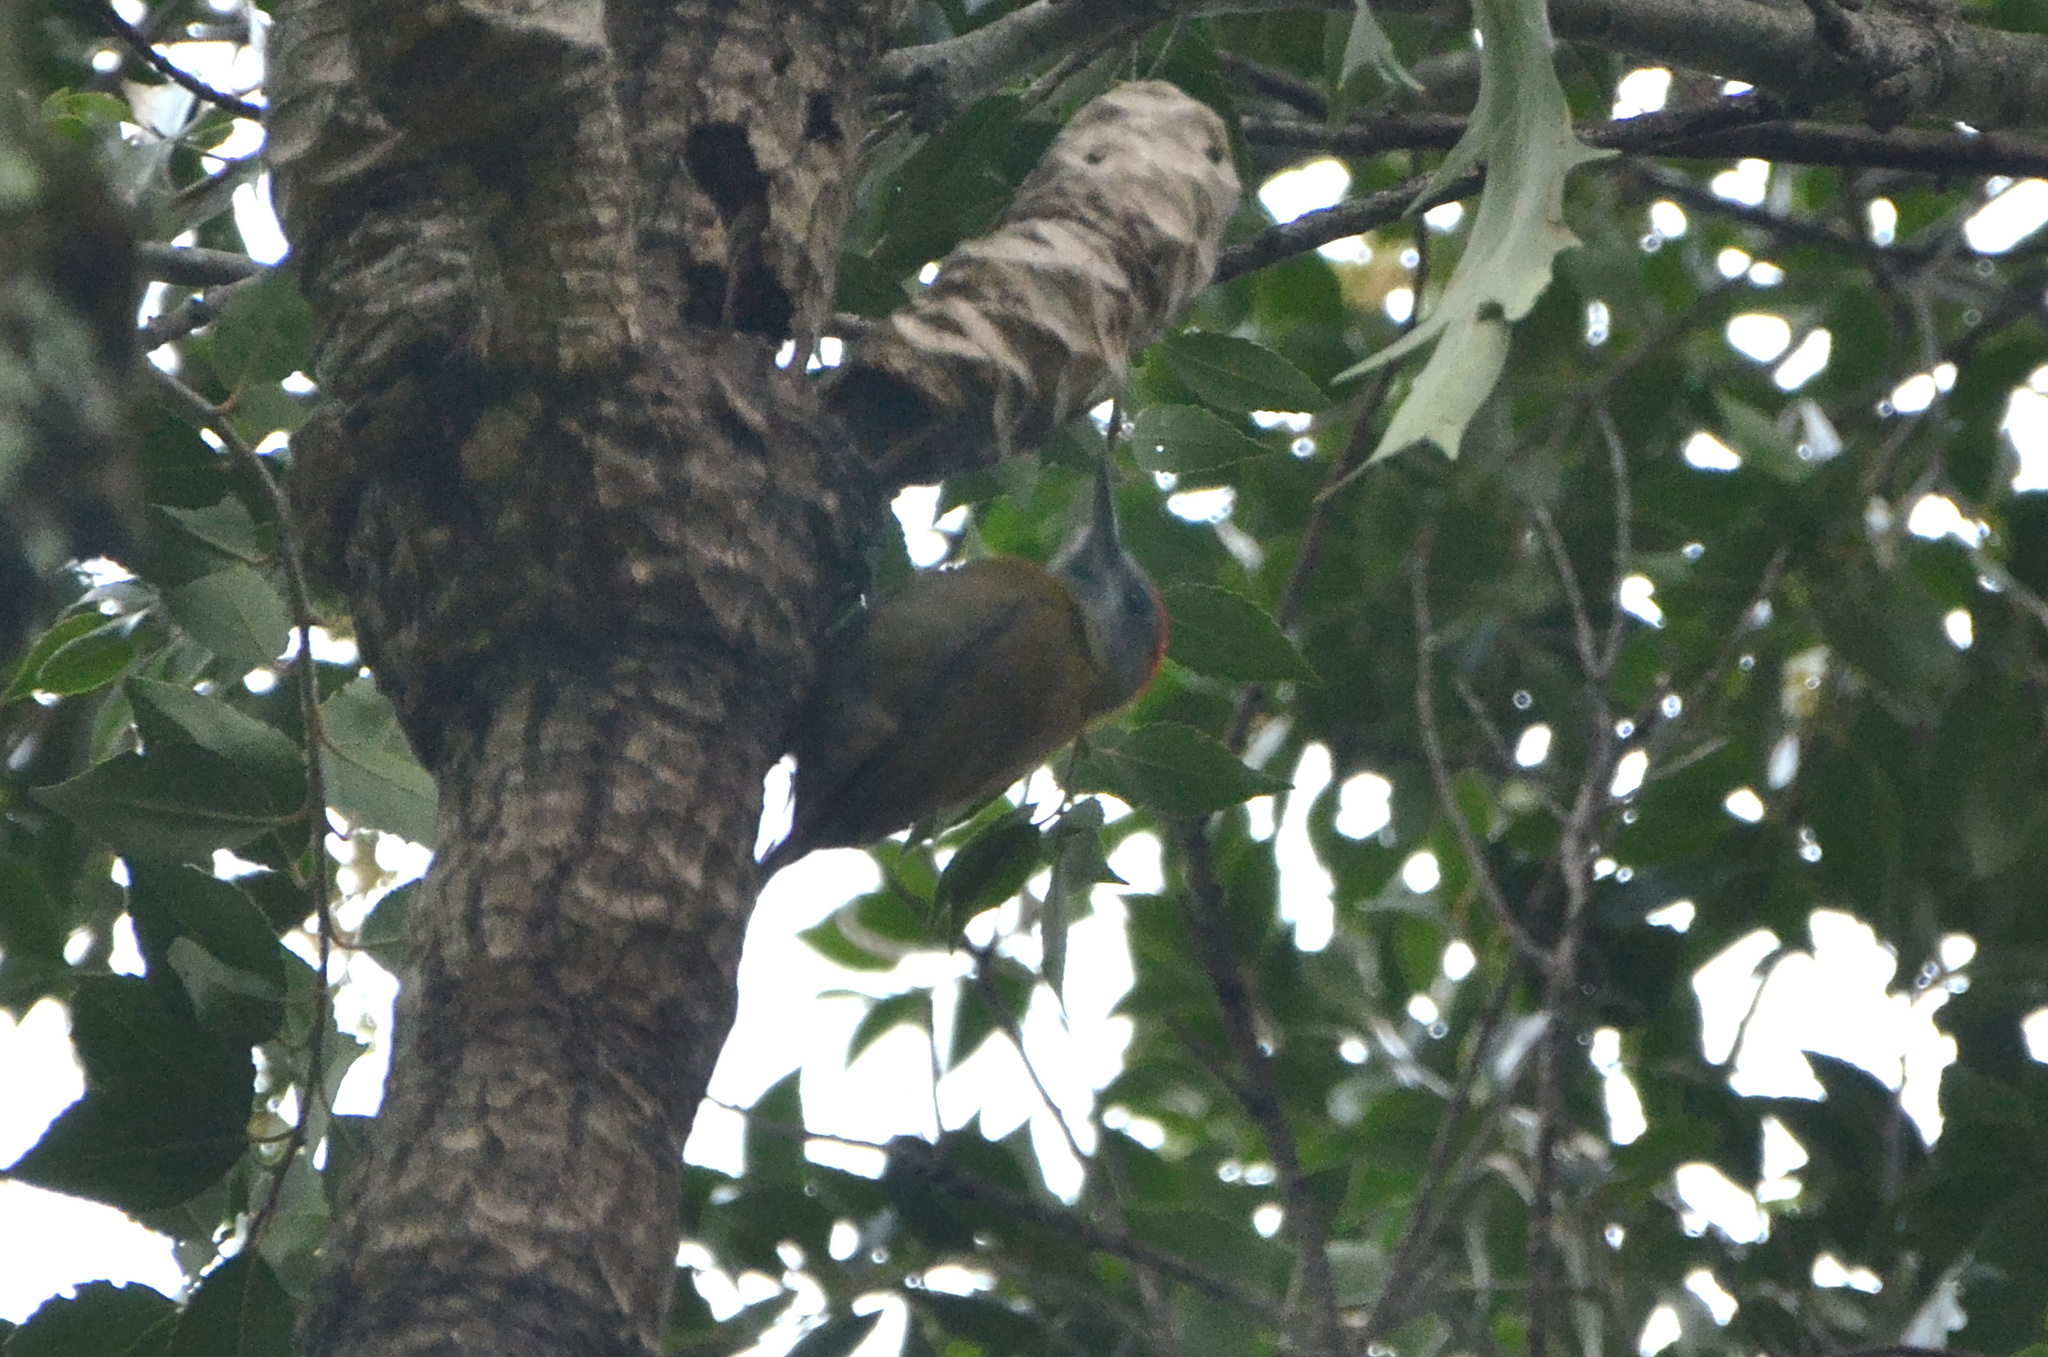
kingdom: Animalia
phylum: Chordata
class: Aves
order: Piciformes
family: Picidae
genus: Dendropicos
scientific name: Dendropicos griseocephalus
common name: Olive woodpecker
